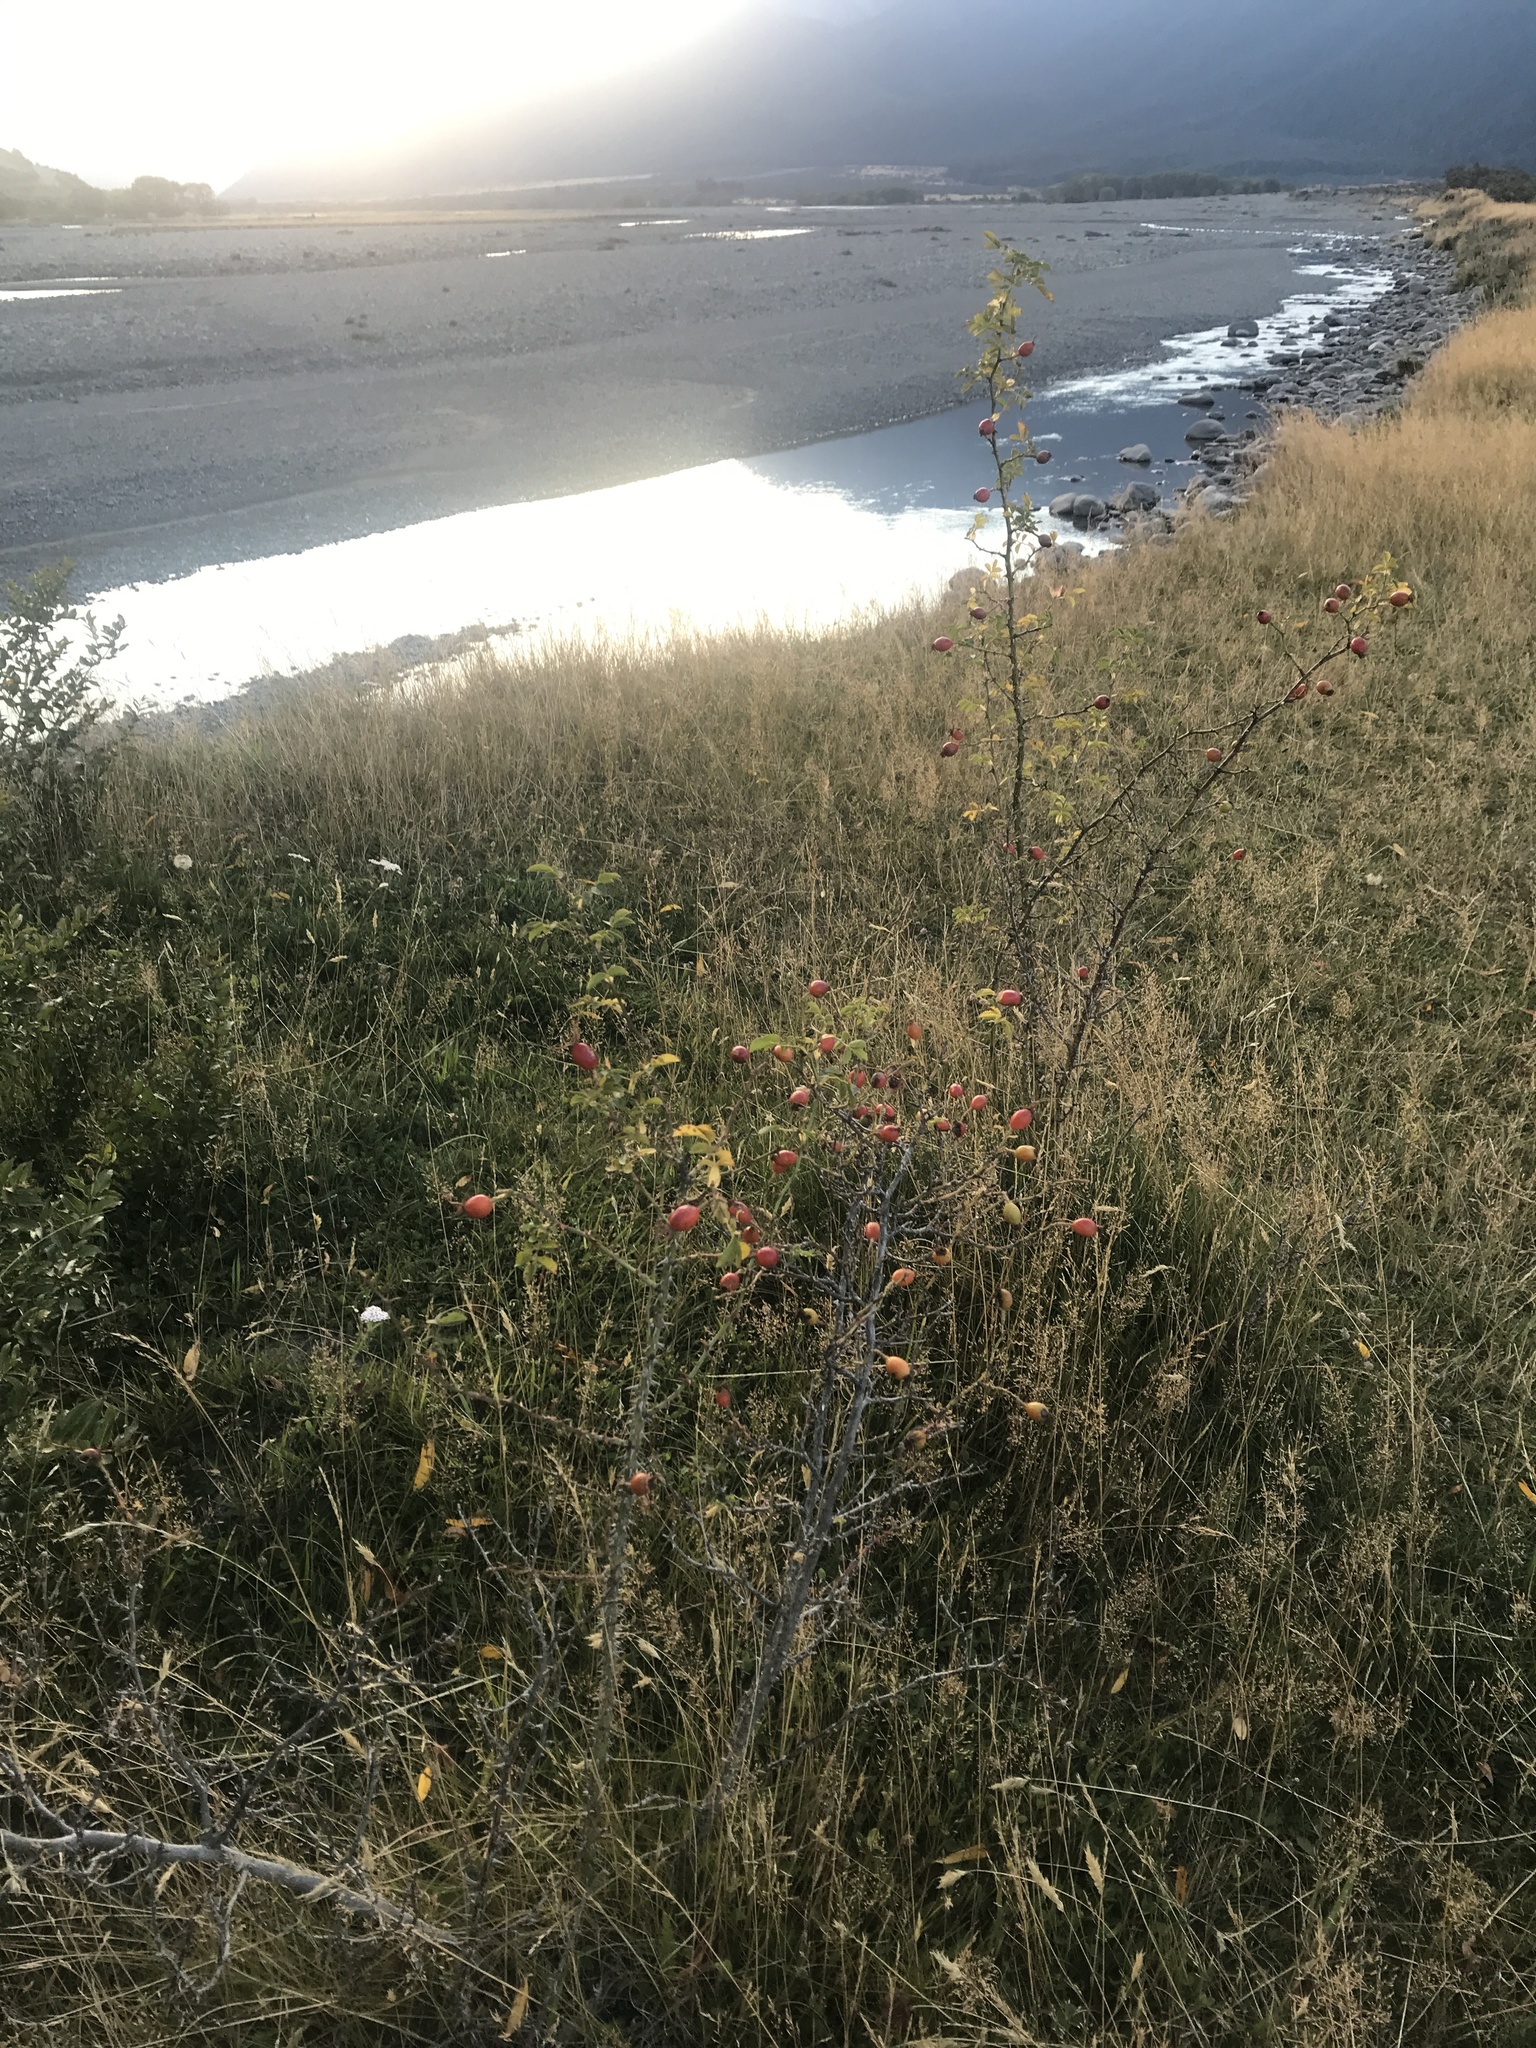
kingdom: Plantae
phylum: Tracheophyta
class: Magnoliopsida
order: Rosales
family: Rosaceae
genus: Rosa
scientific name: Rosa rubiginosa
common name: Sweet-briar
